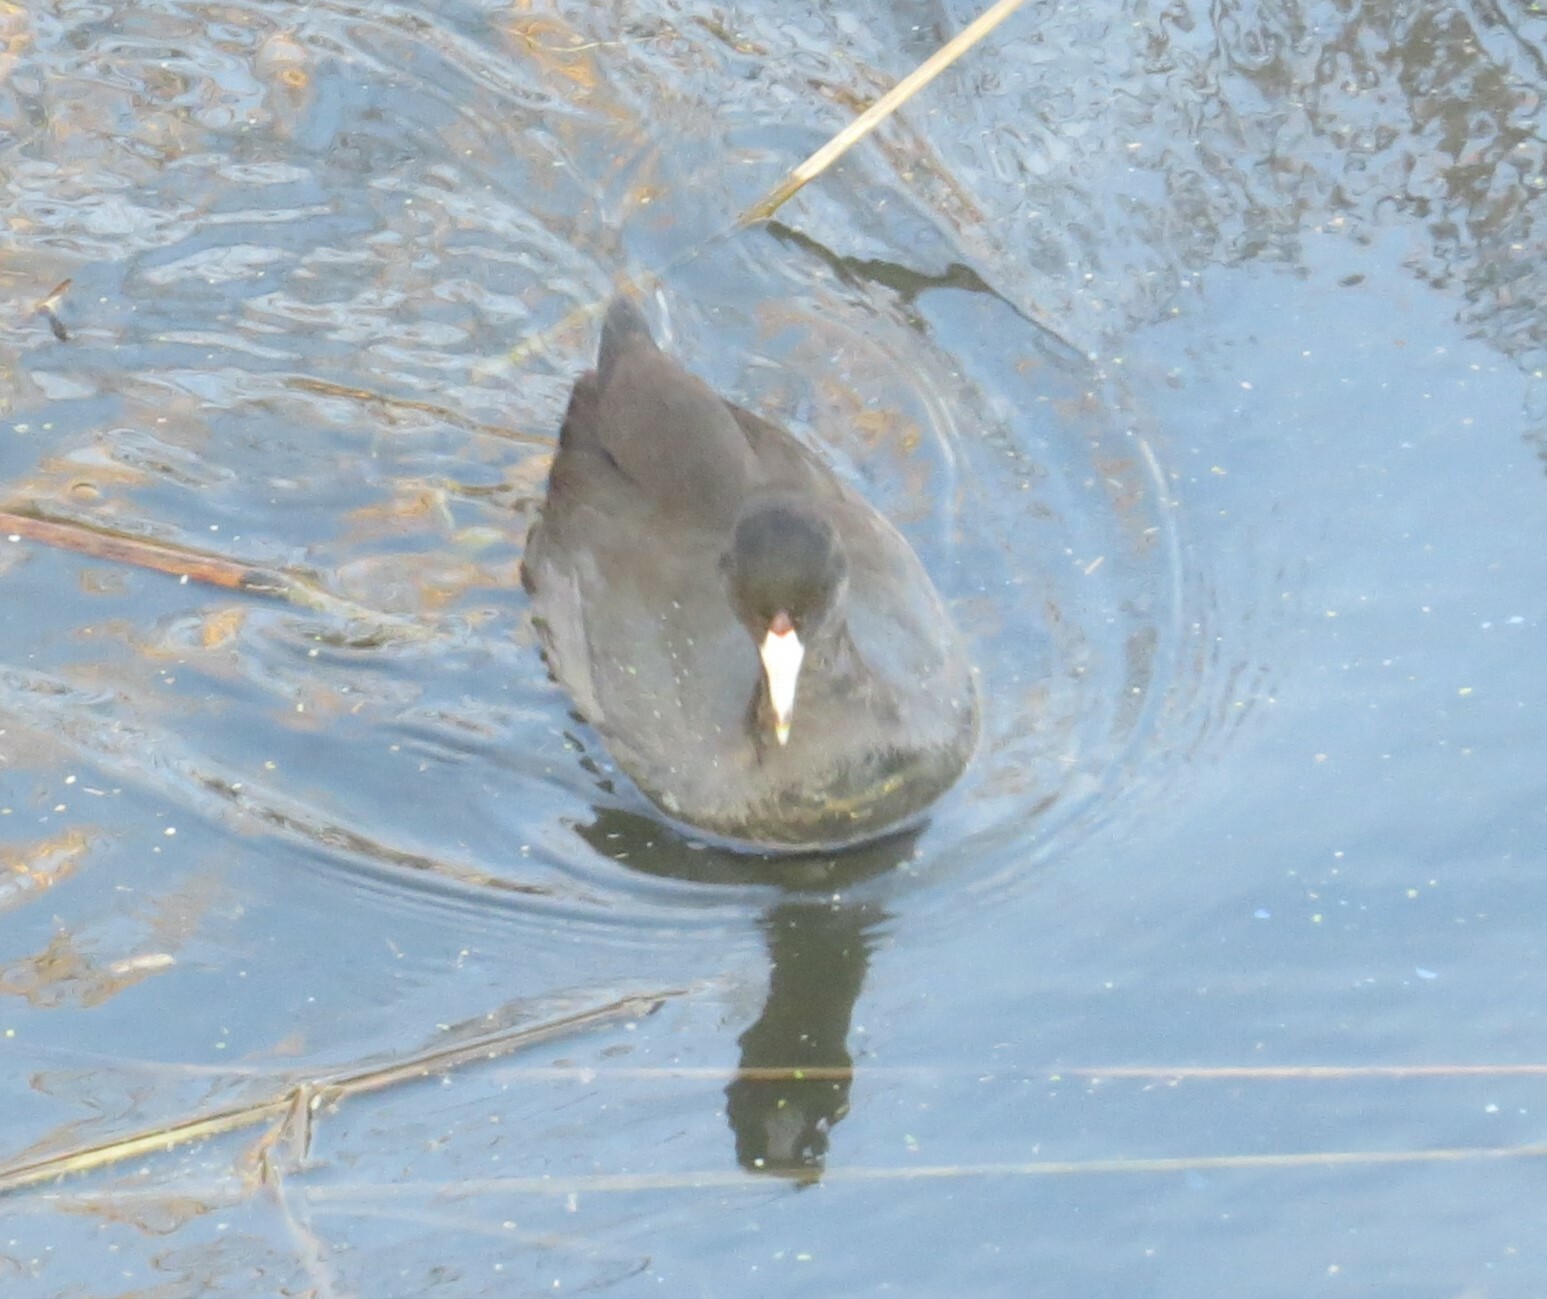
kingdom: Animalia
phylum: Chordata
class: Aves
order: Gruiformes
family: Rallidae
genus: Fulica
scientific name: Fulica americana
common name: American coot
